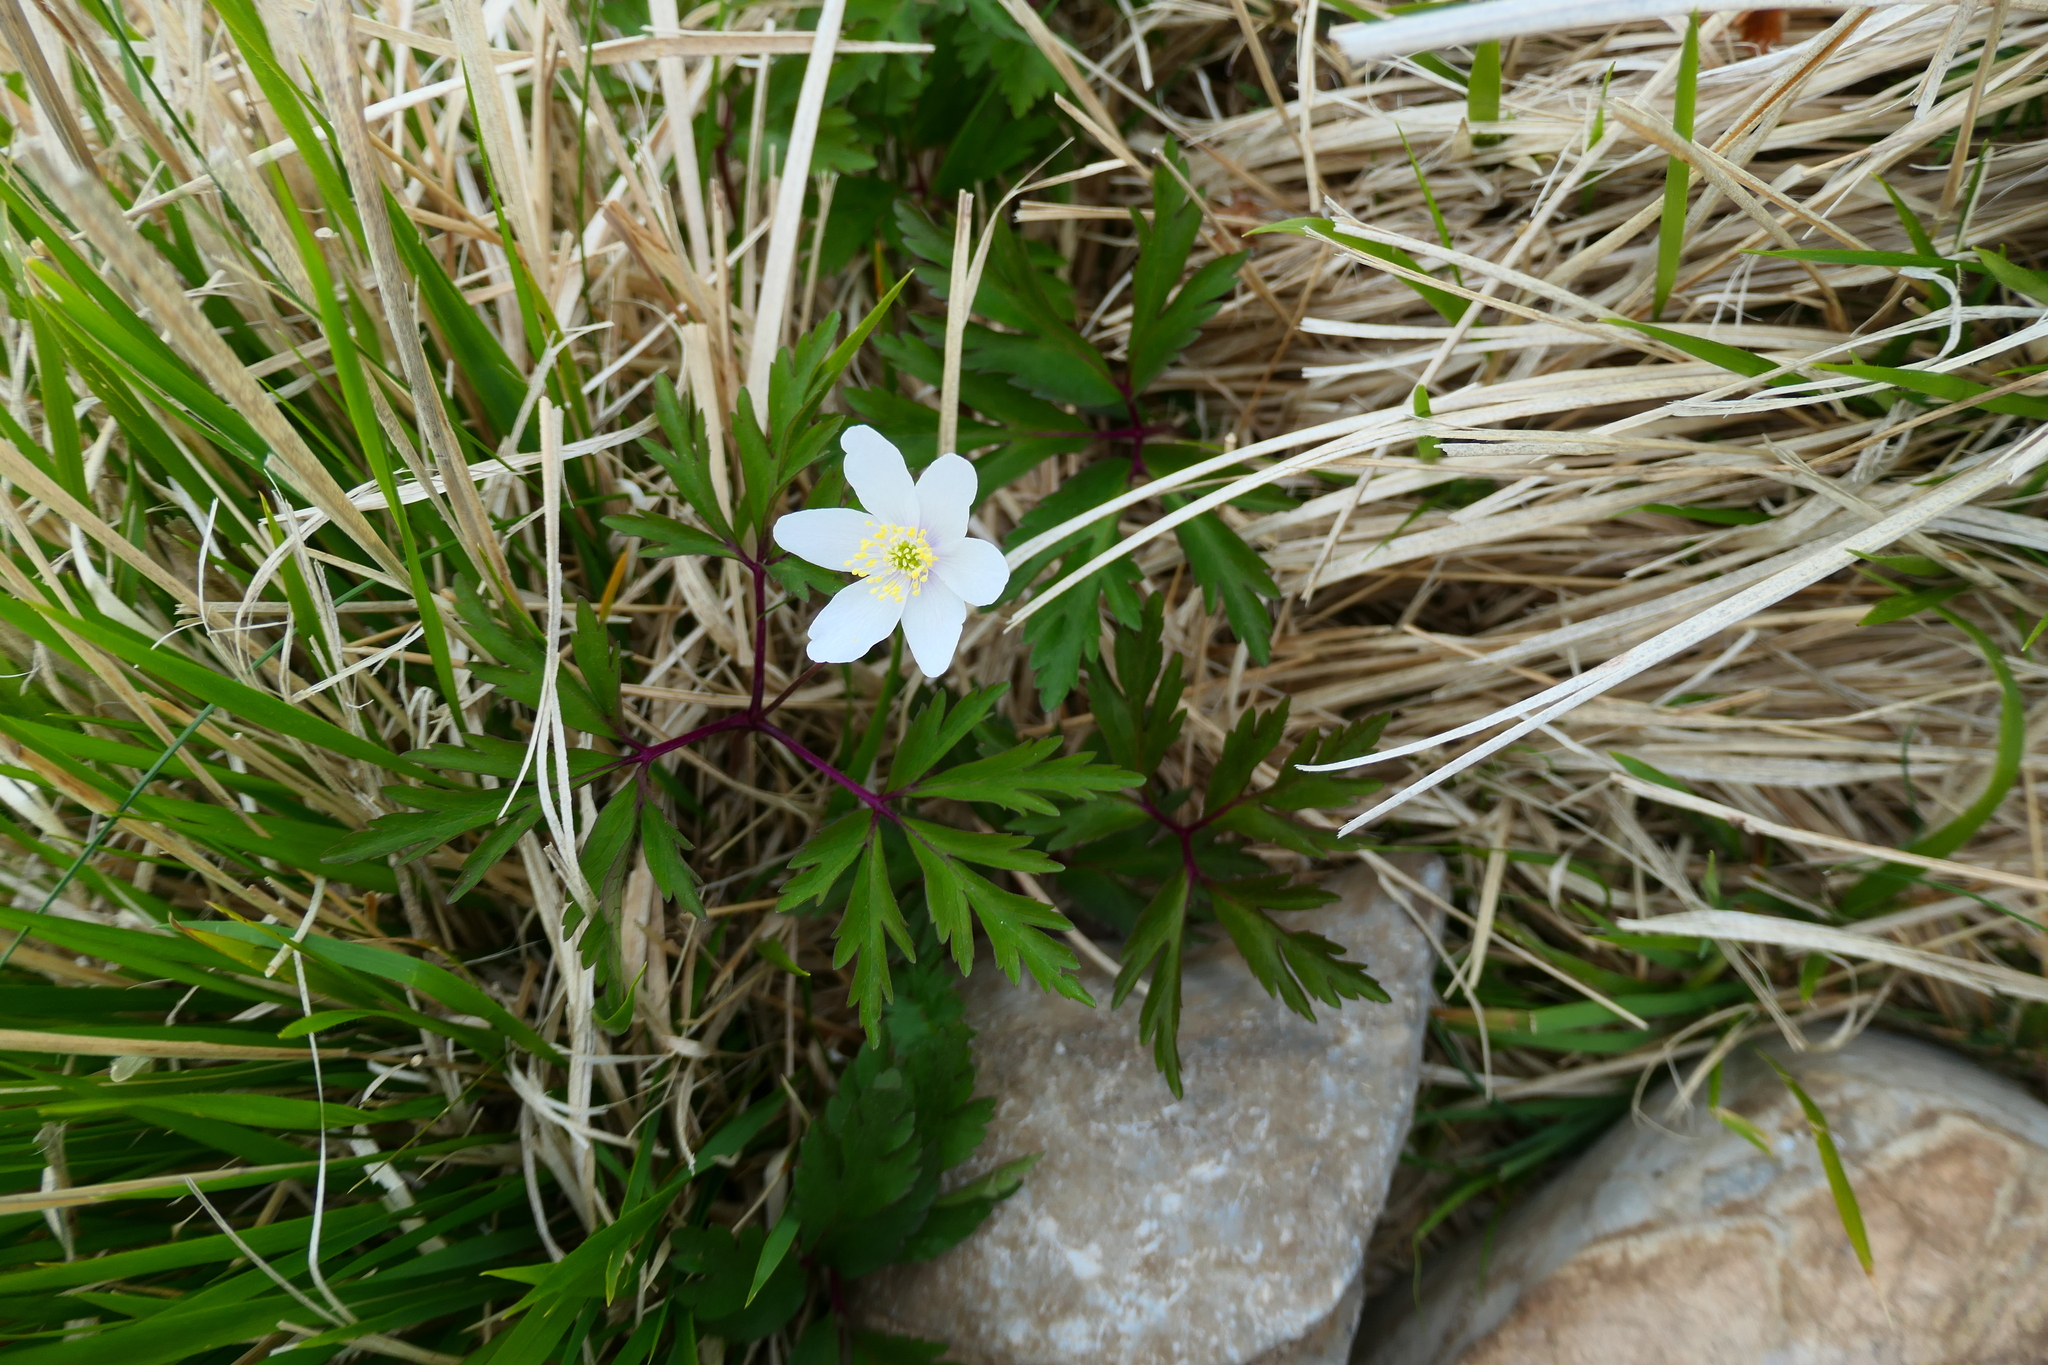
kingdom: Plantae
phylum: Tracheophyta
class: Magnoliopsida
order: Ranunculales
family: Ranunculaceae
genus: Anemone
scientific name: Anemone nemorosa
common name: Wood anemone
